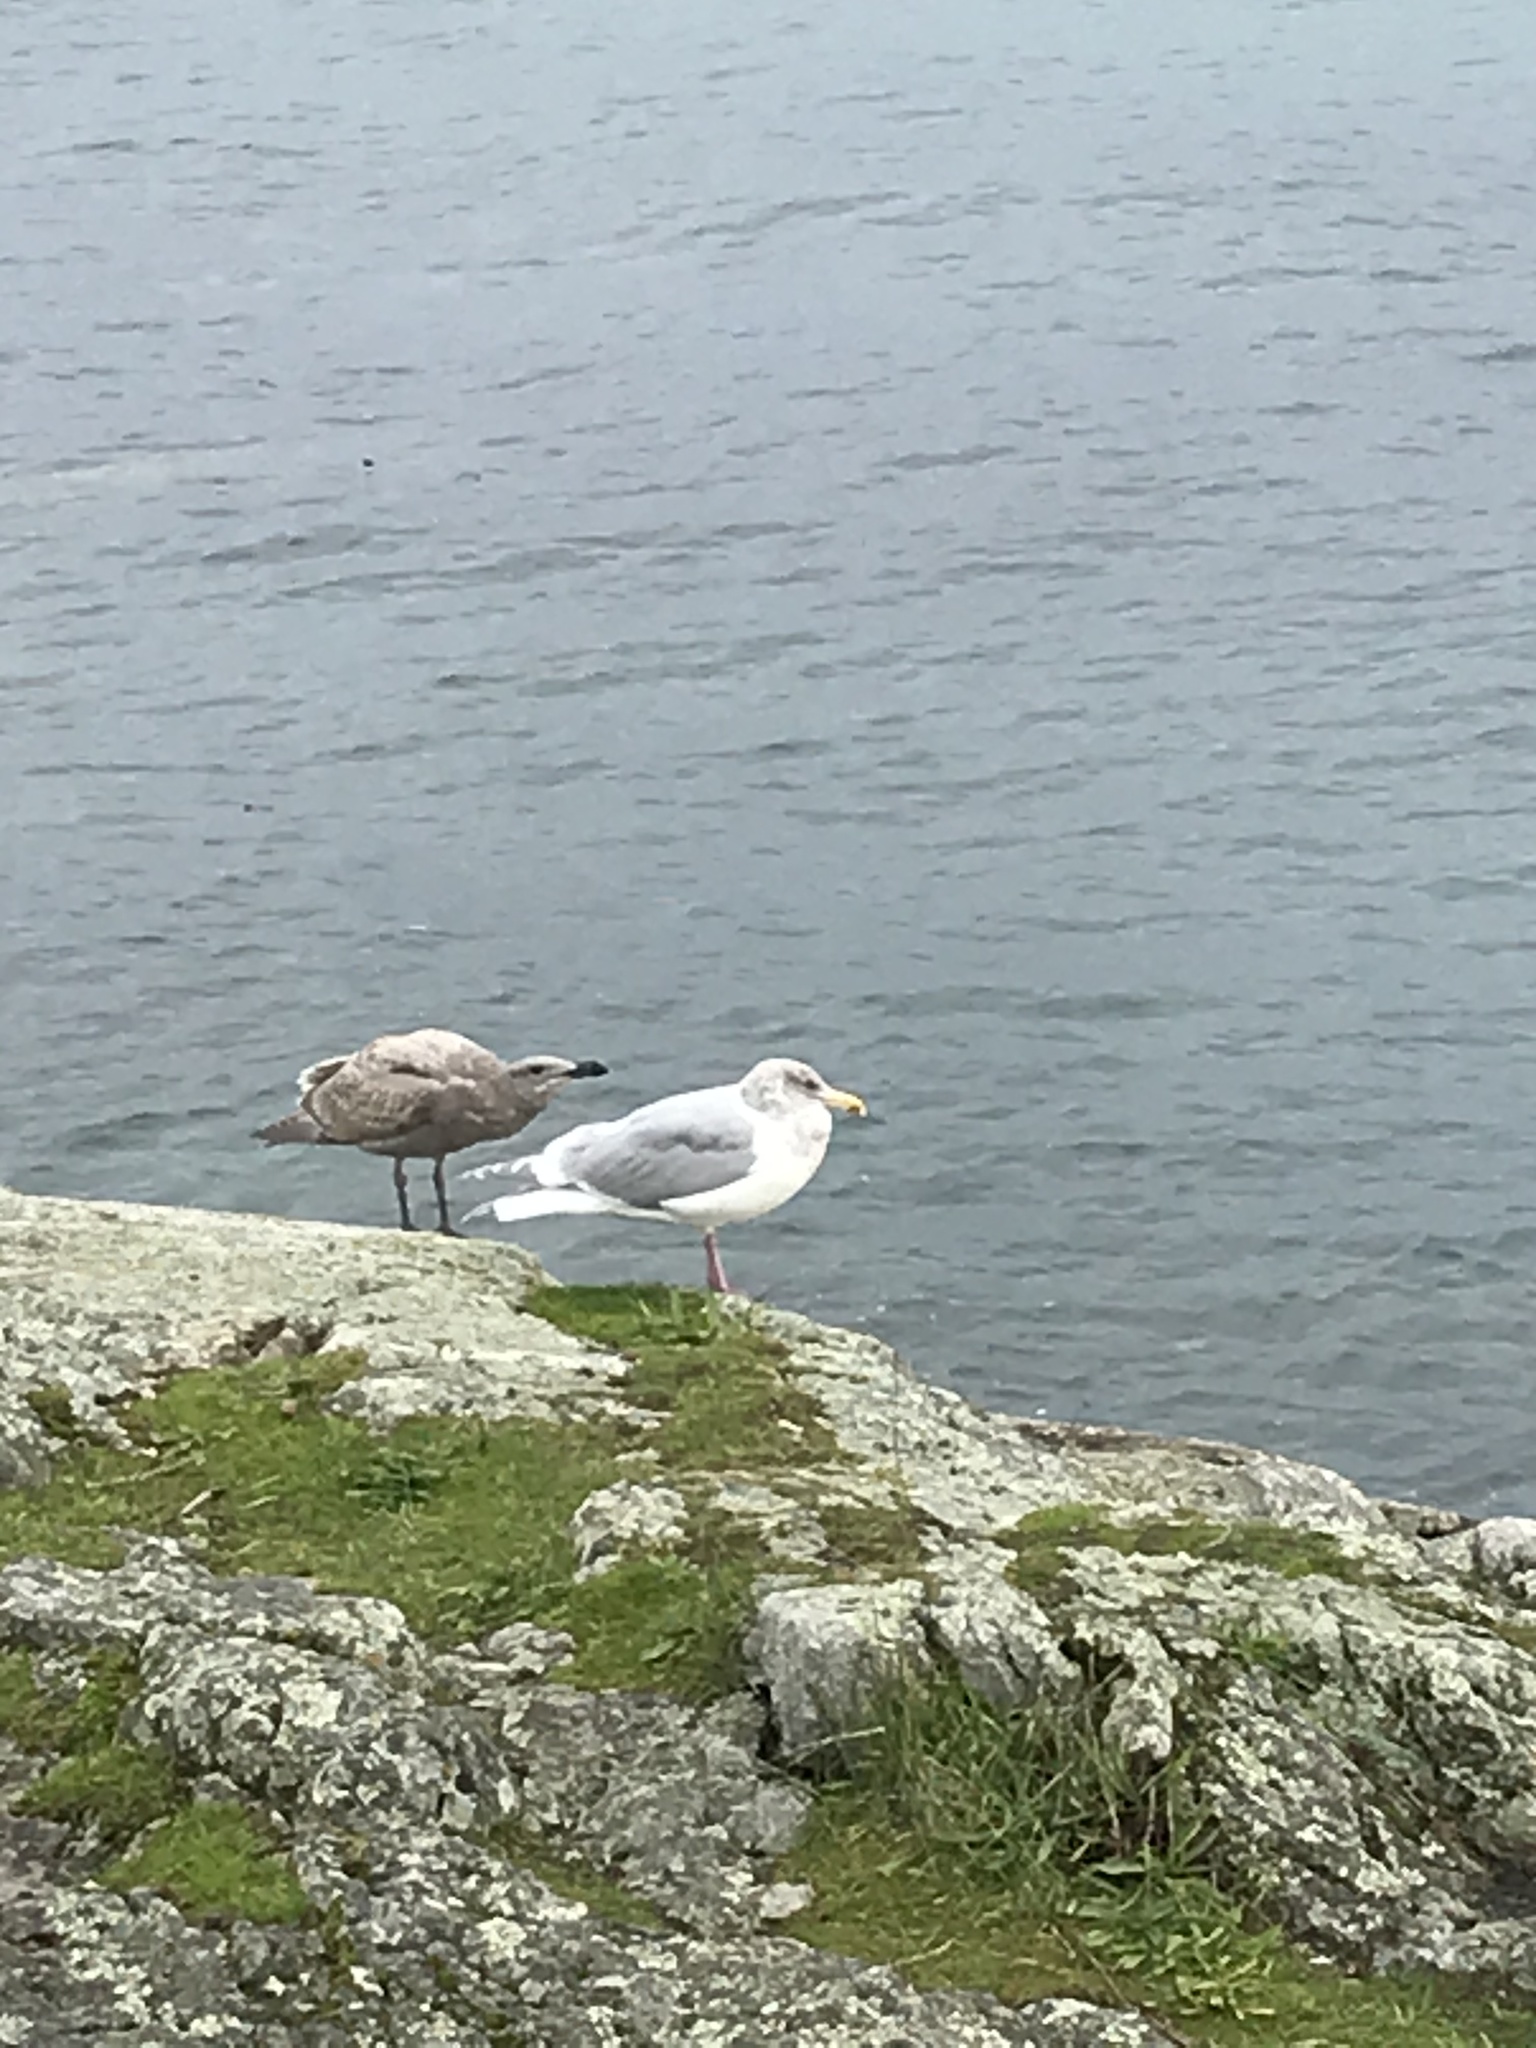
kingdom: Animalia
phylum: Chordata
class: Aves
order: Charadriiformes
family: Laridae
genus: Larus
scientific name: Larus
